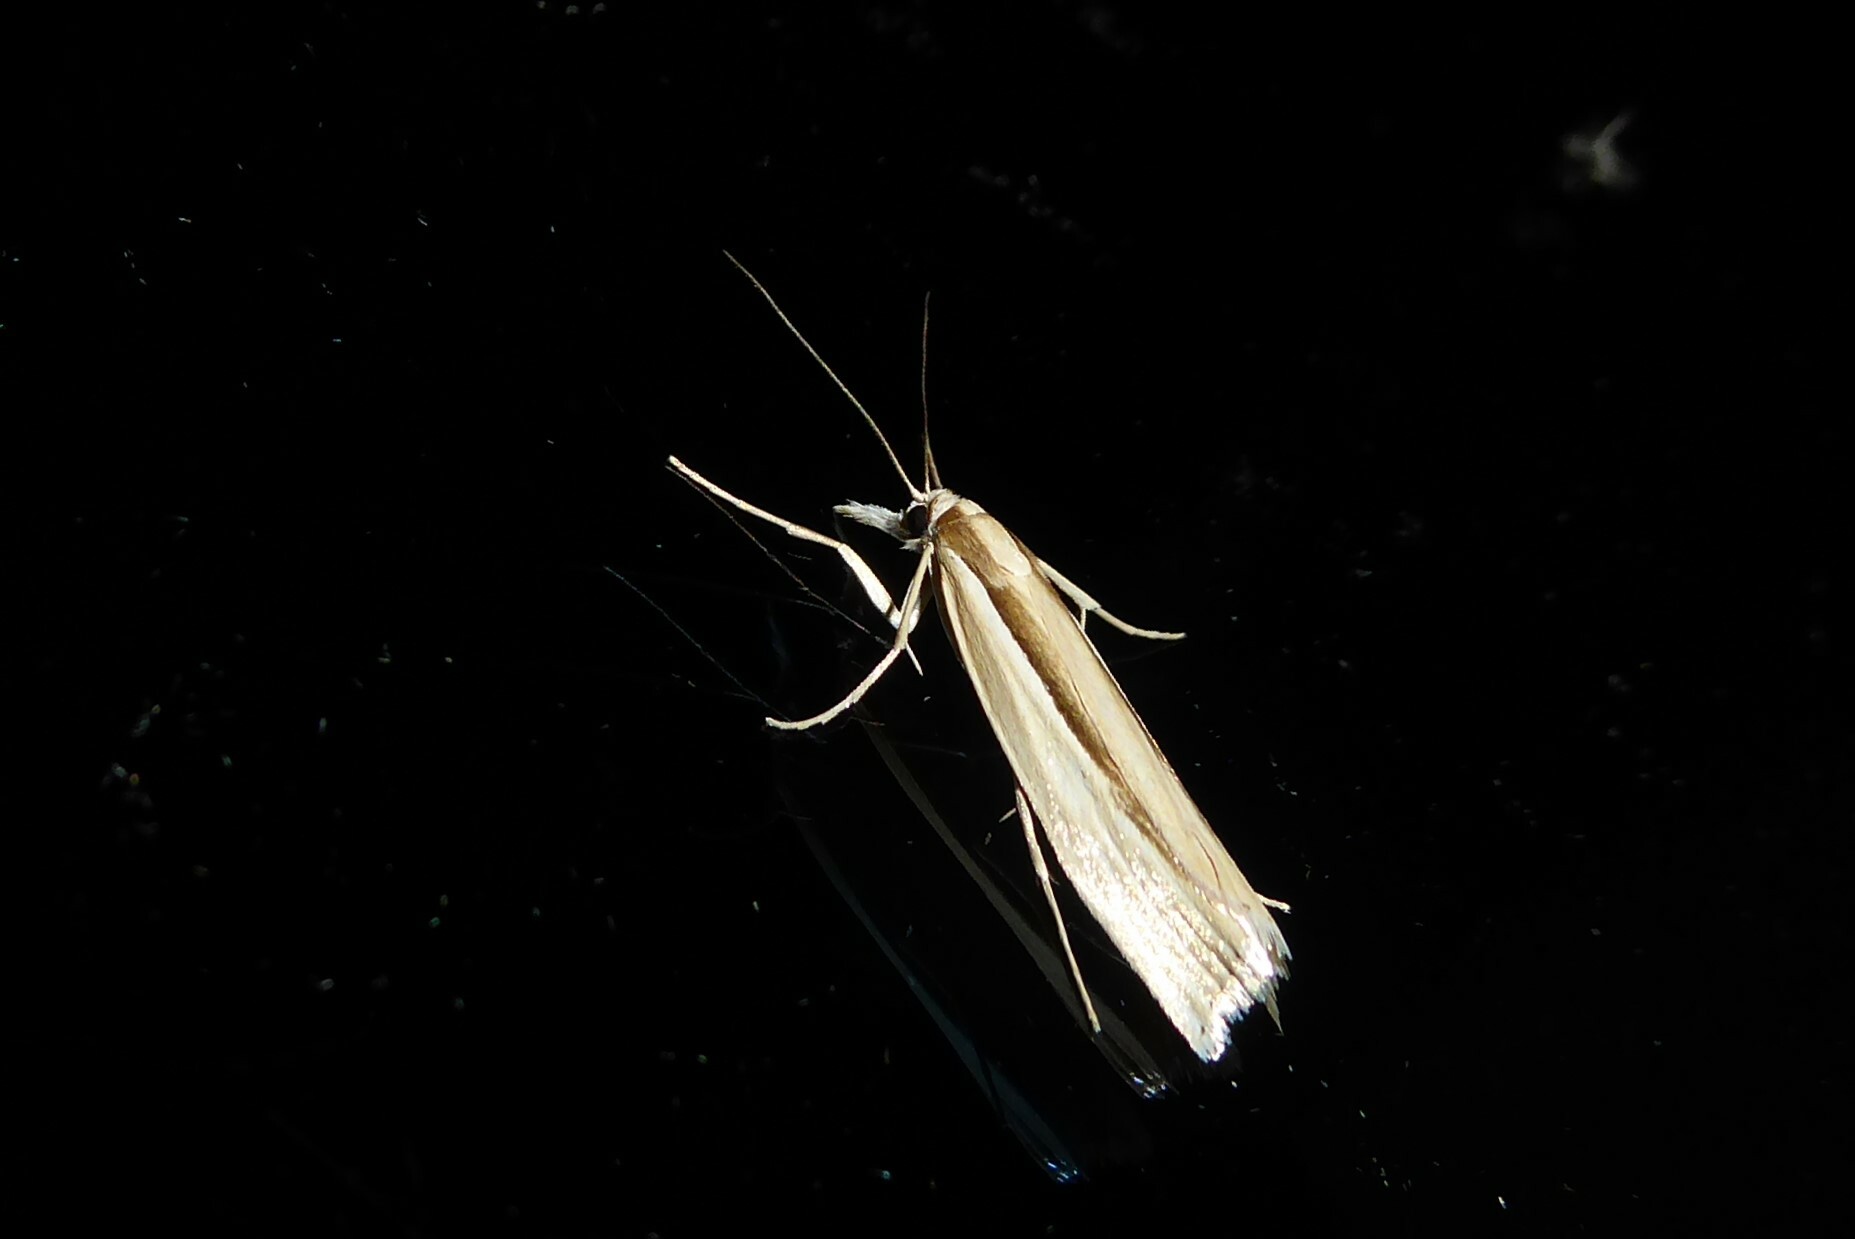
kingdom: Animalia
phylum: Arthropoda
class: Insecta
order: Lepidoptera
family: Crambidae
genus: Orocrambus
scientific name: Orocrambus ramosellus
